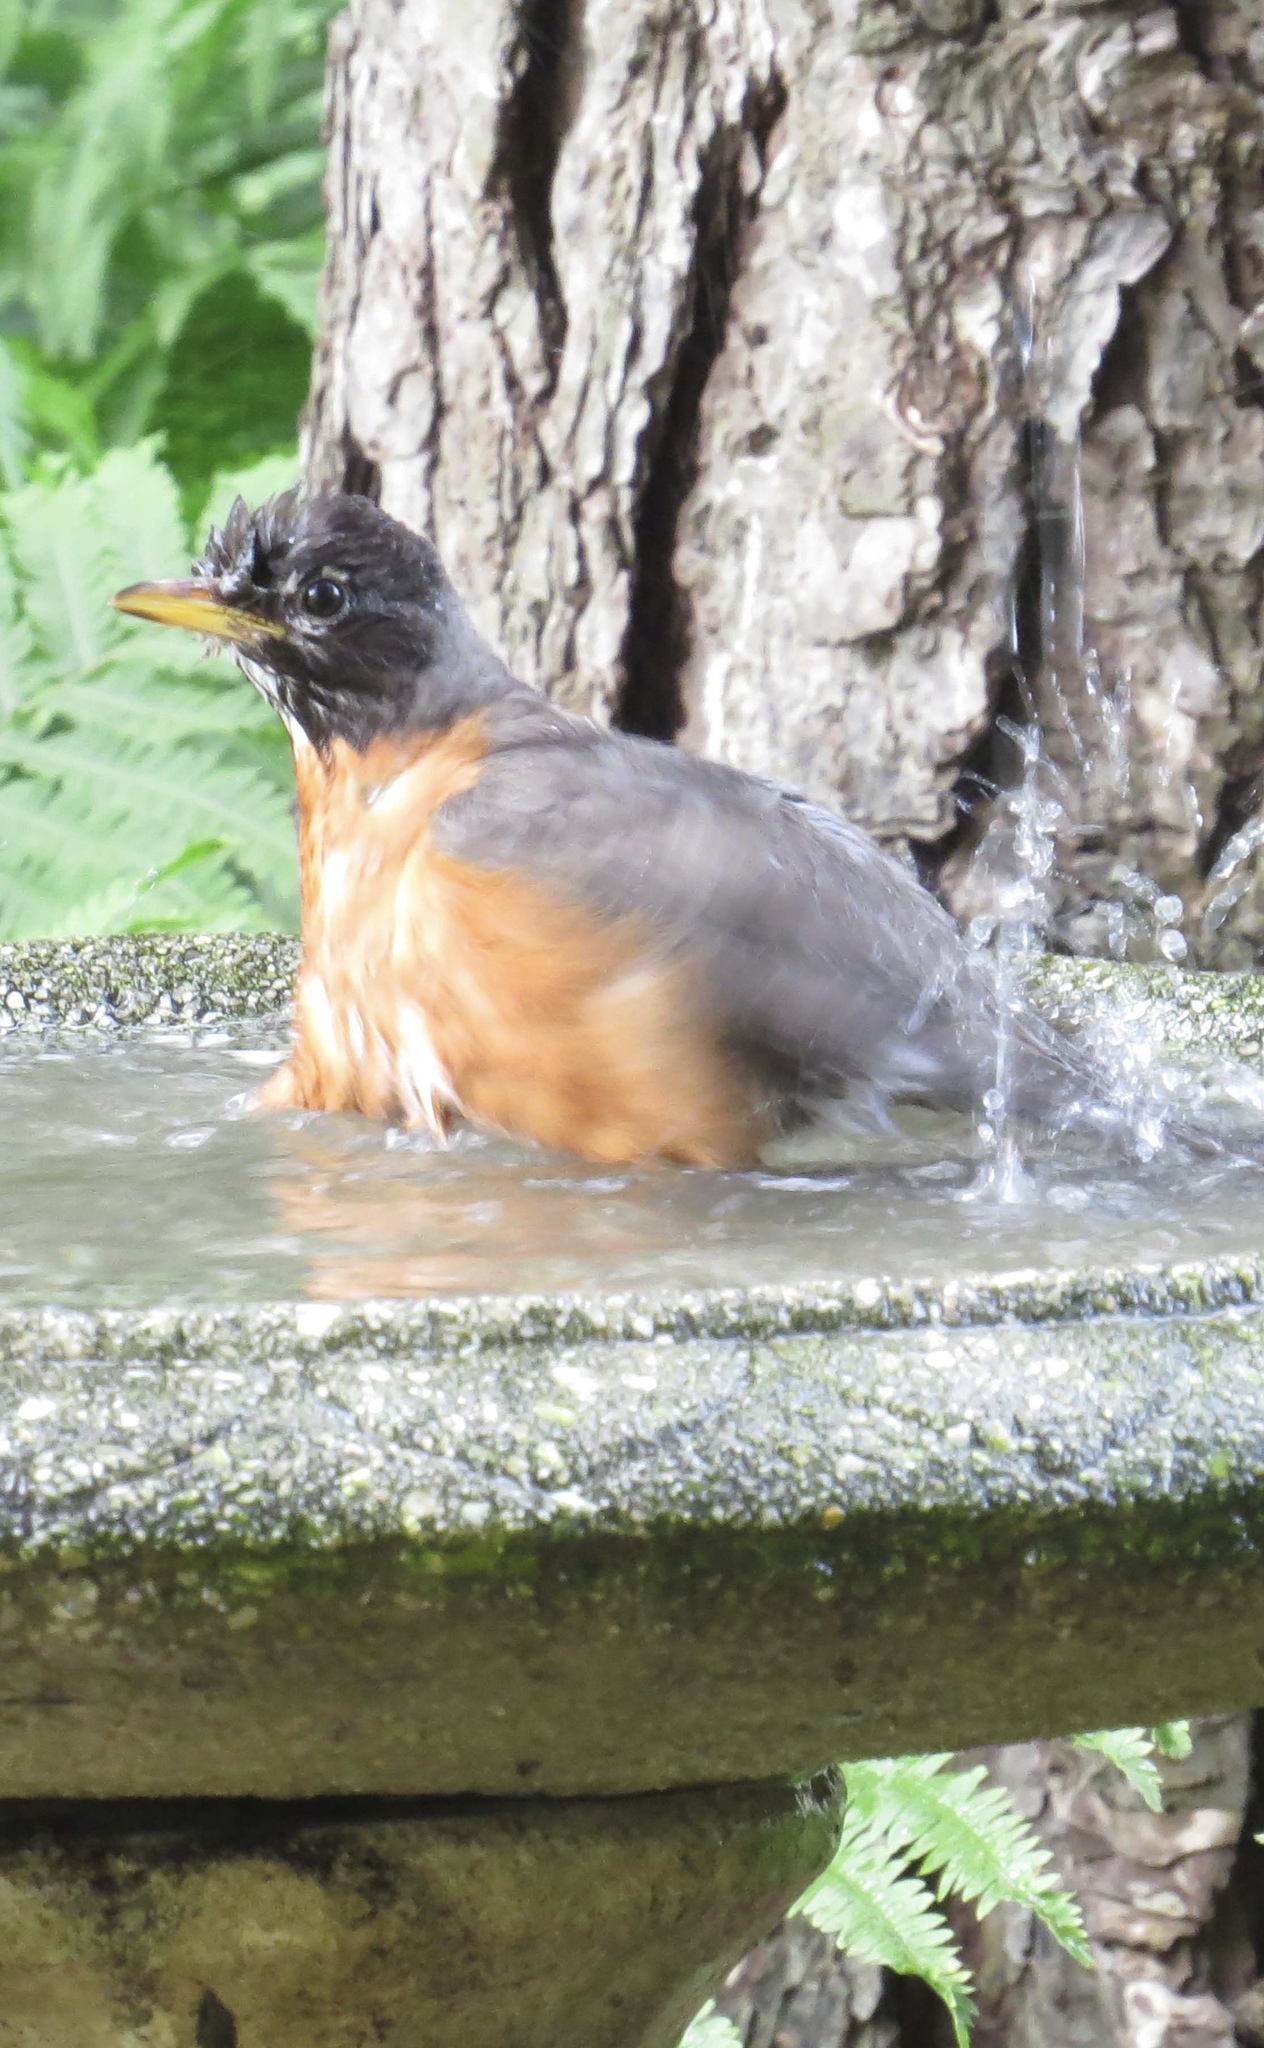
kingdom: Animalia
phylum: Chordata
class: Aves
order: Passeriformes
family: Turdidae
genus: Turdus
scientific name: Turdus migratorius
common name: American robin
